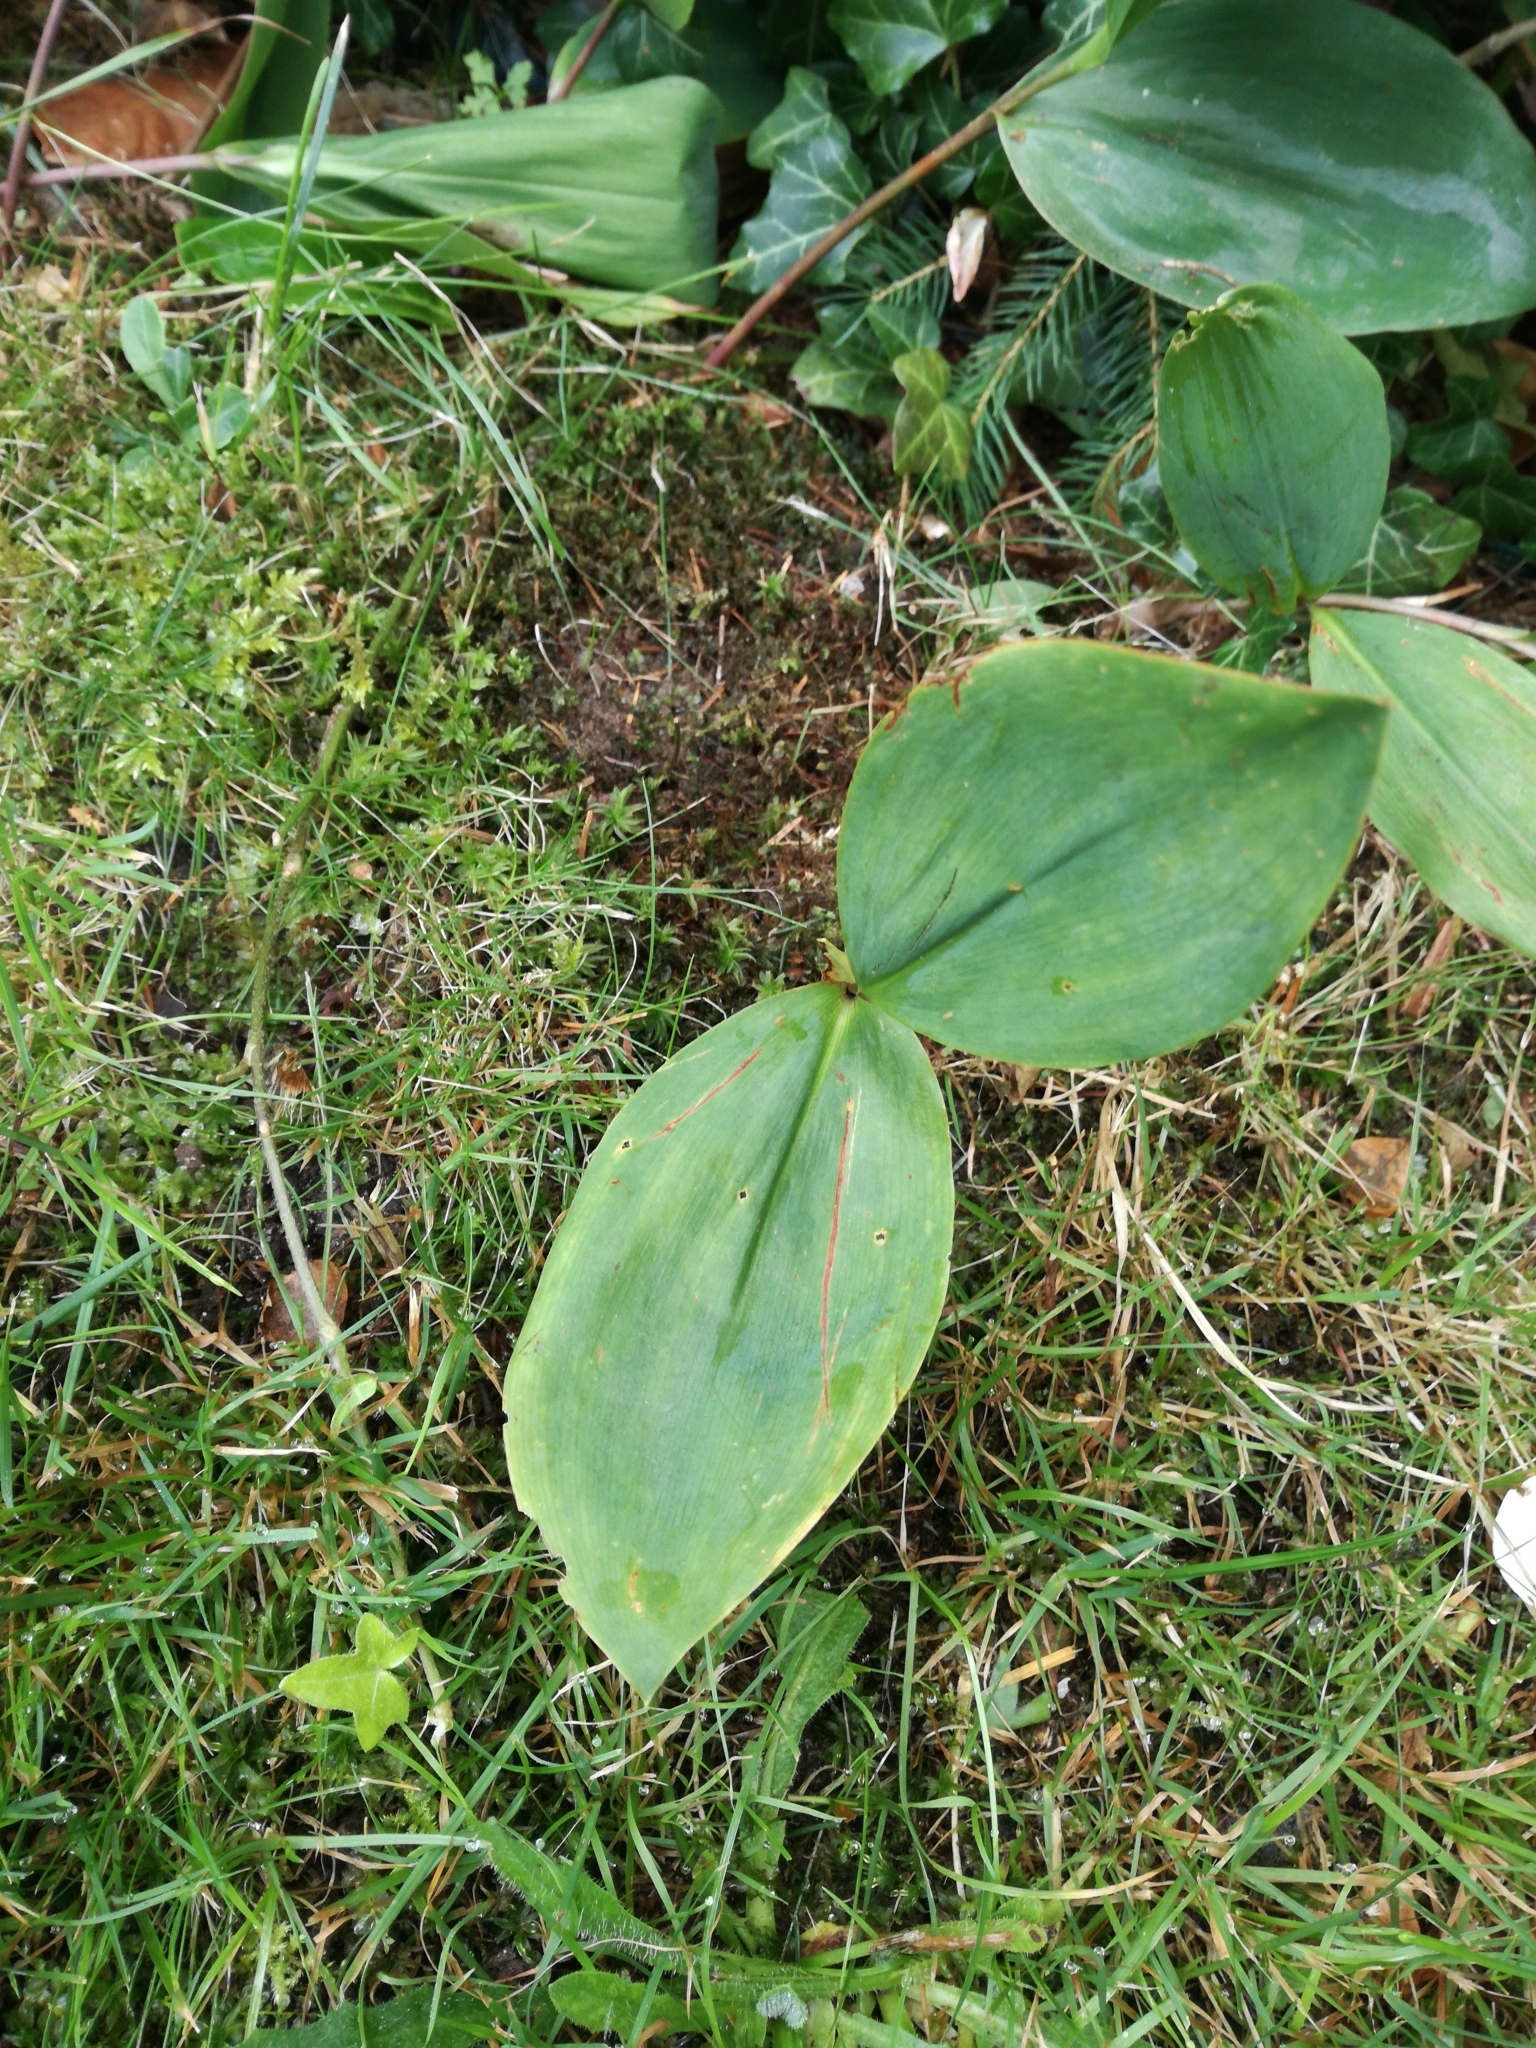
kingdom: Plantae
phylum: Tracheophyta
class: Liliopsida
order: Asparagales
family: Asparagaceae
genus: Convallaria
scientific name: Convallaria majalis
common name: Lily-of-the-valley
